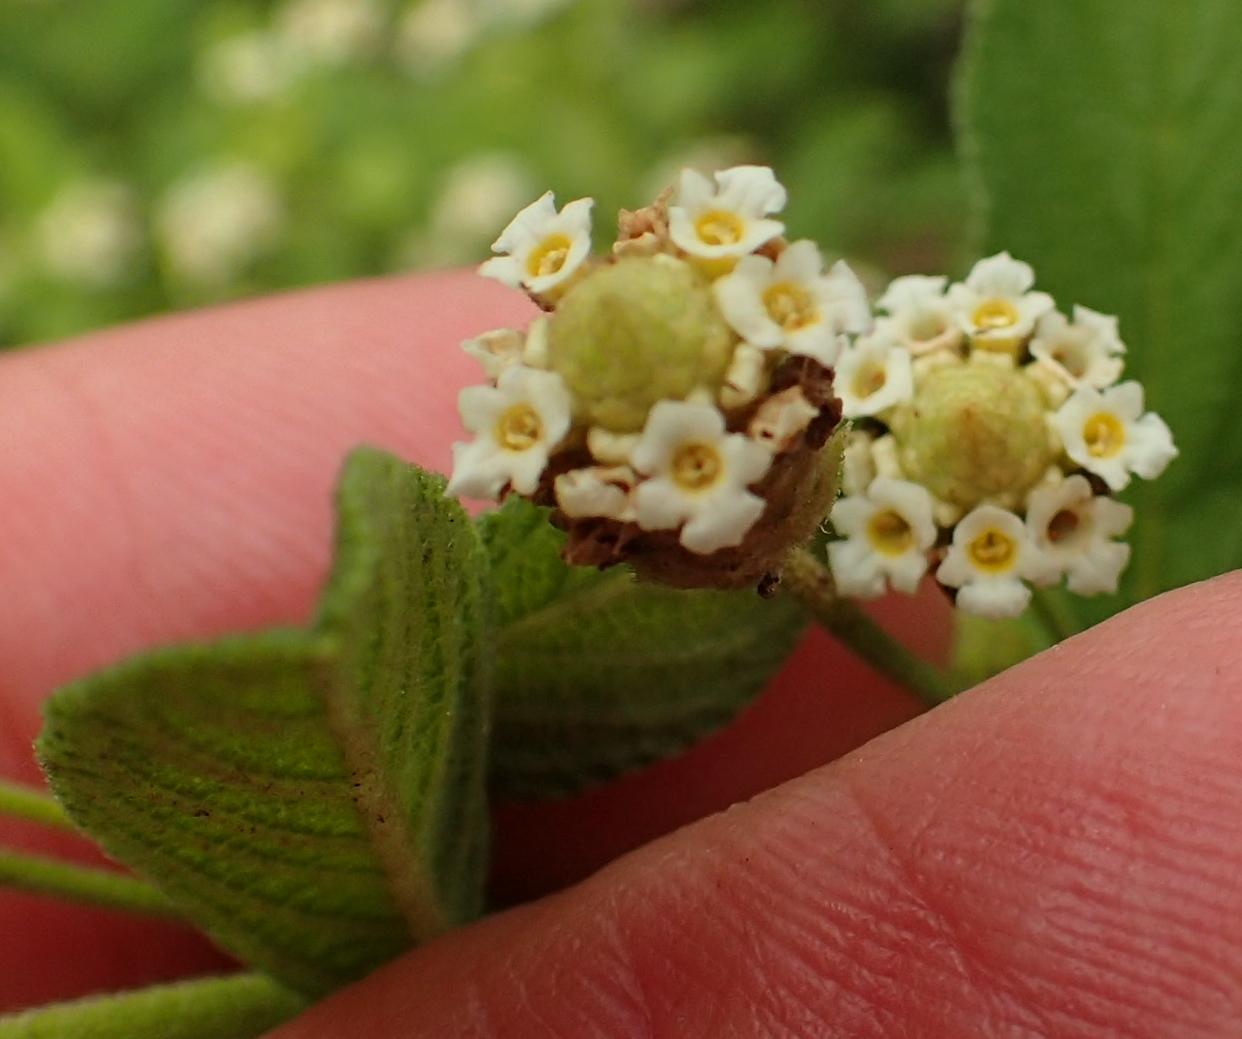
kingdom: Plantae
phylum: Tracheophyta
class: Magnoliopsida
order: Lamiales
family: Verbenaceae
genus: Lippia
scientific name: Lippia javanica
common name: Lemonbush
